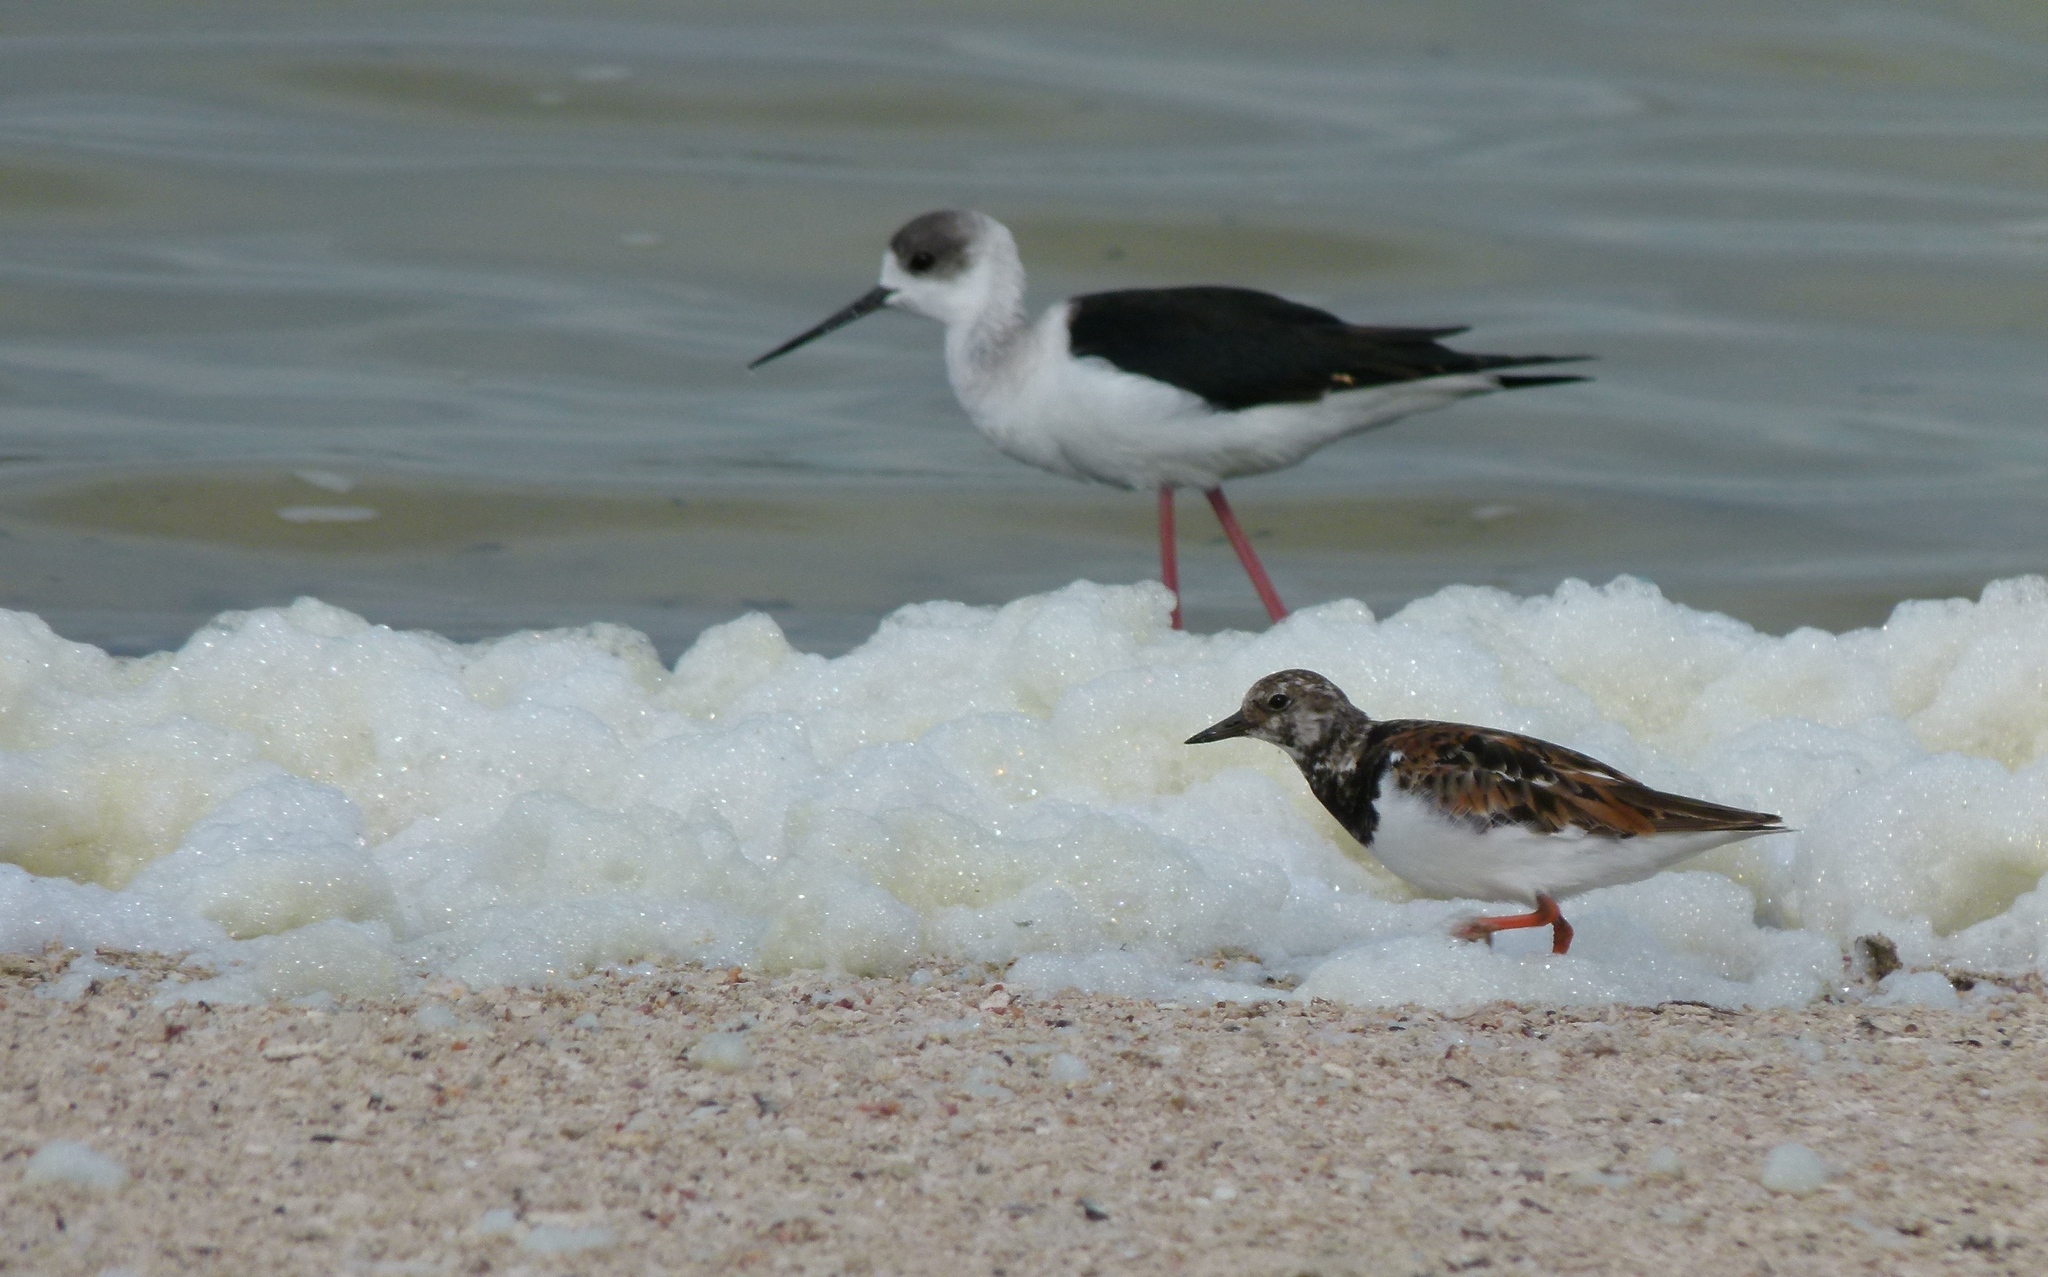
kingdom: Animalia
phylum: Chordata
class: Aves
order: Charadriiformes
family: Scolopacidae
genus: Arenaria
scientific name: Arenaria interpres
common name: Ruddy turnstone
